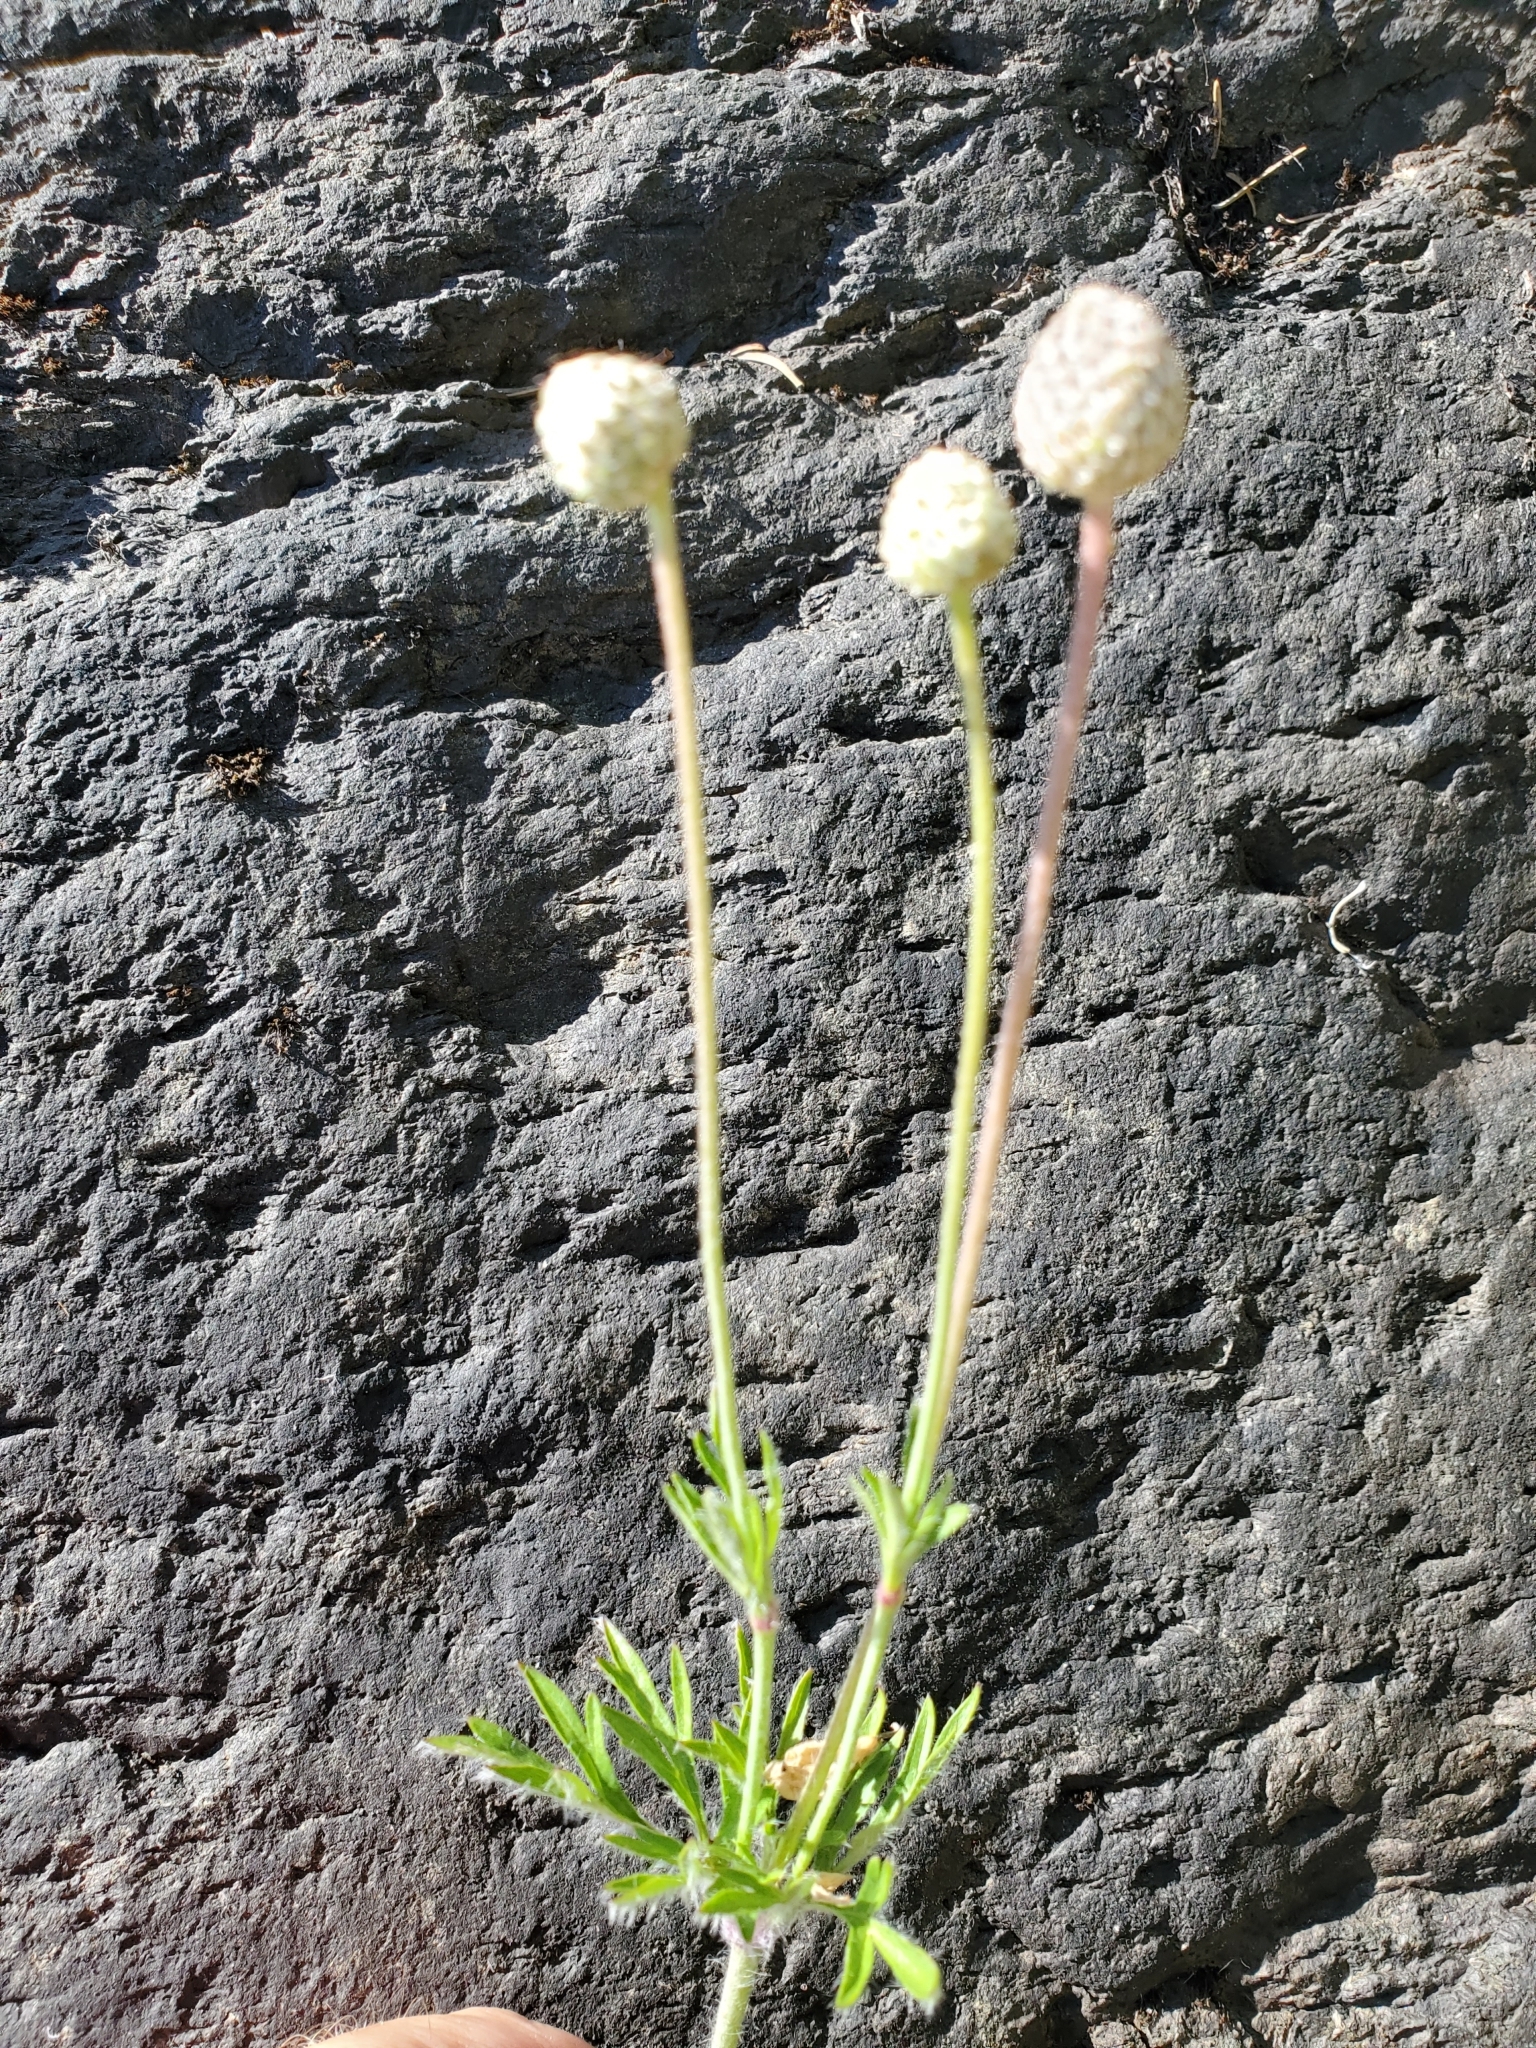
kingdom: Plantae
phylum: Tracheophyta
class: Magnoliopsida
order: Ranunculales
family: Ranunculaceae
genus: Anemone
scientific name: Anemone multifida
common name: Bird's-foot anemone
